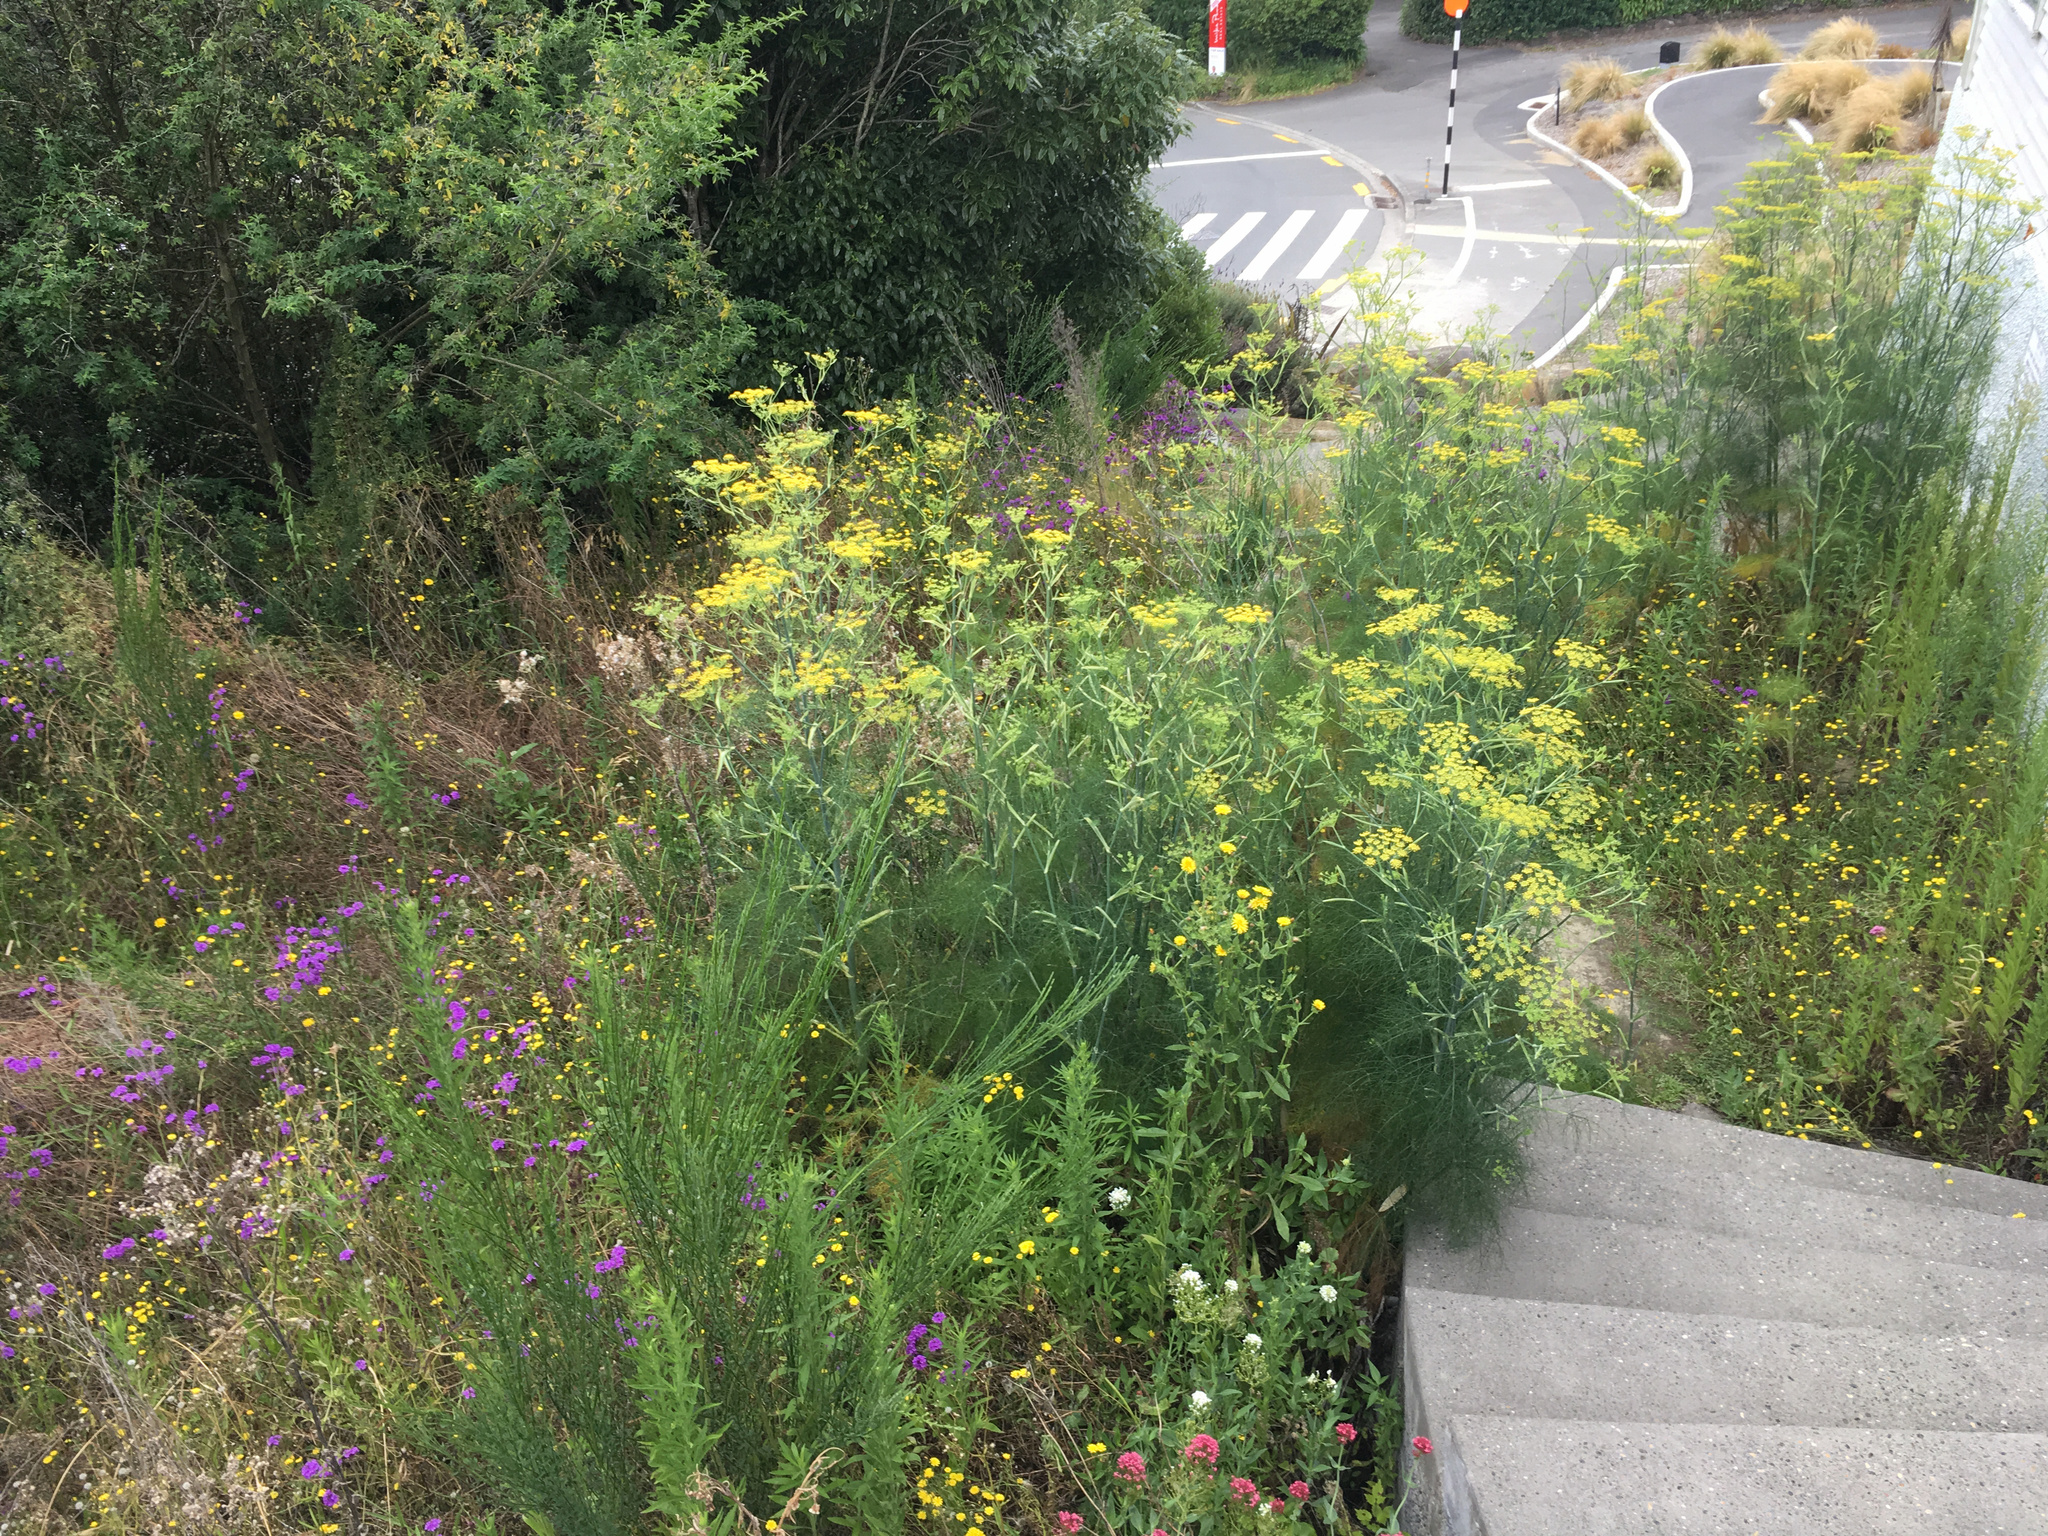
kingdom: Plantae
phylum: Tracheophyta
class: Magnoliopsida
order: Apiales
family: Apiaceae
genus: Foeniculum
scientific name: Foeniculum vulgare
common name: Fennel
